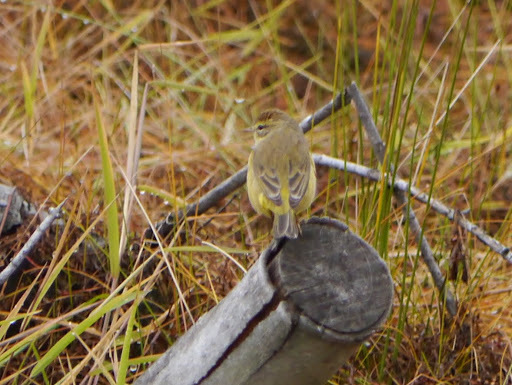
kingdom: Animalia
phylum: Chordata
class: Aves
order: Passeriformes
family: Parulidae
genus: Setophaga
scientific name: Setophaga palmarum
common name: Palm warbler
